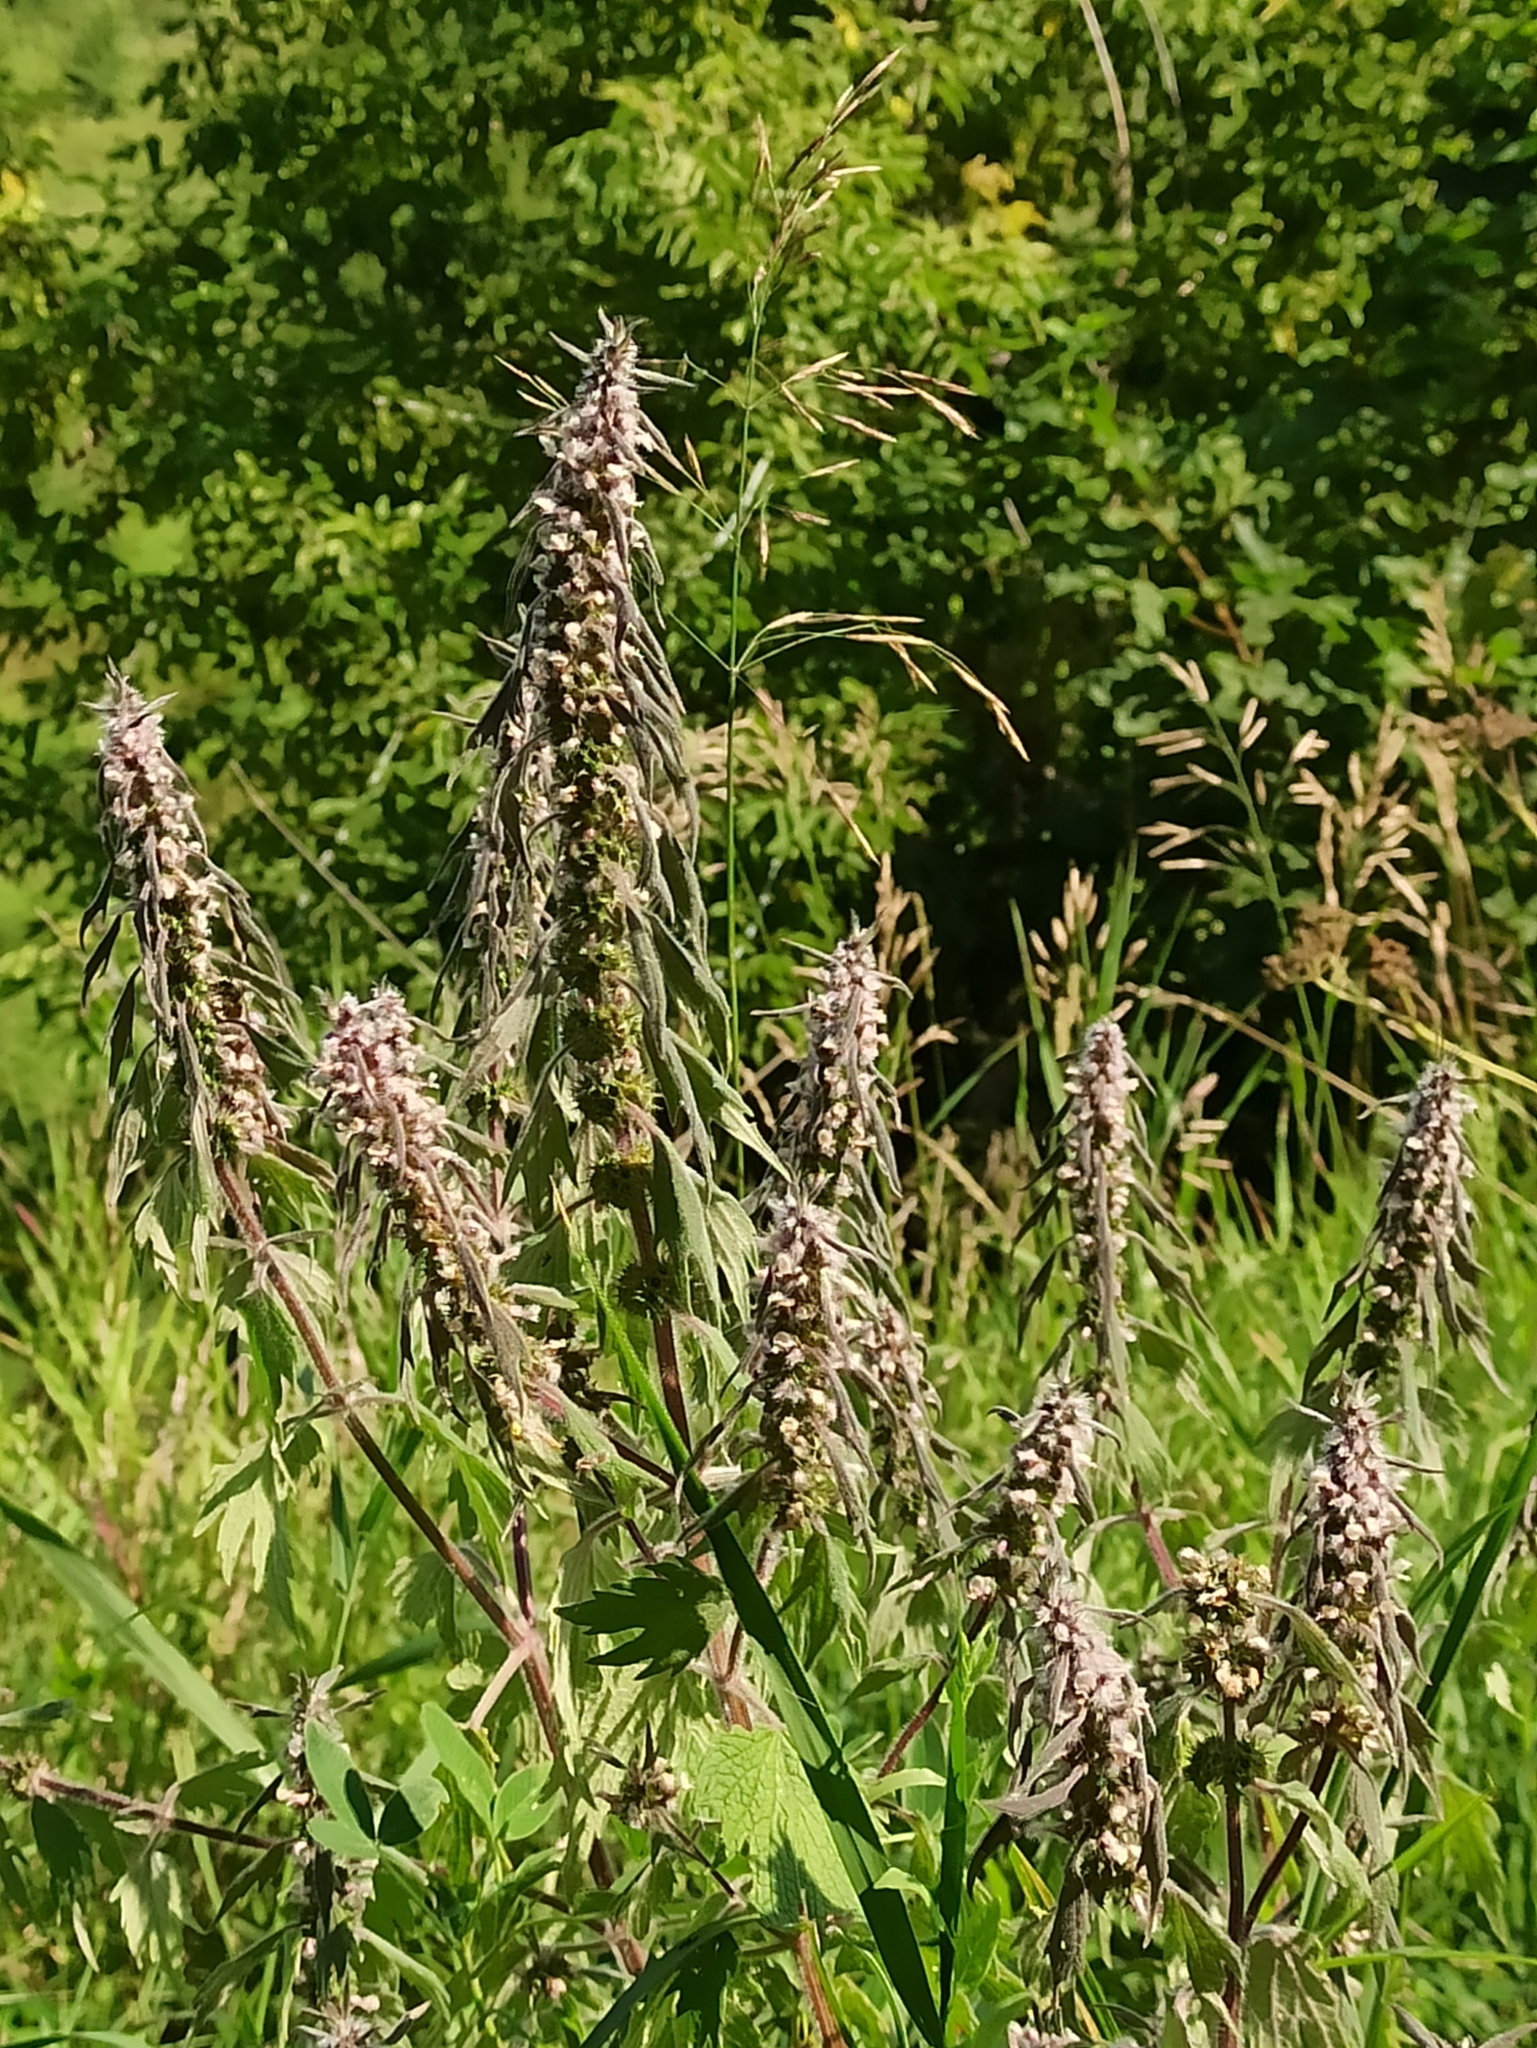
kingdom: Plantae
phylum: Tracheophyta
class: Magnoliopsida
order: Lamiales
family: Lamiaceae
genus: Leonurus
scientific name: Leonurus quinquelobatus
